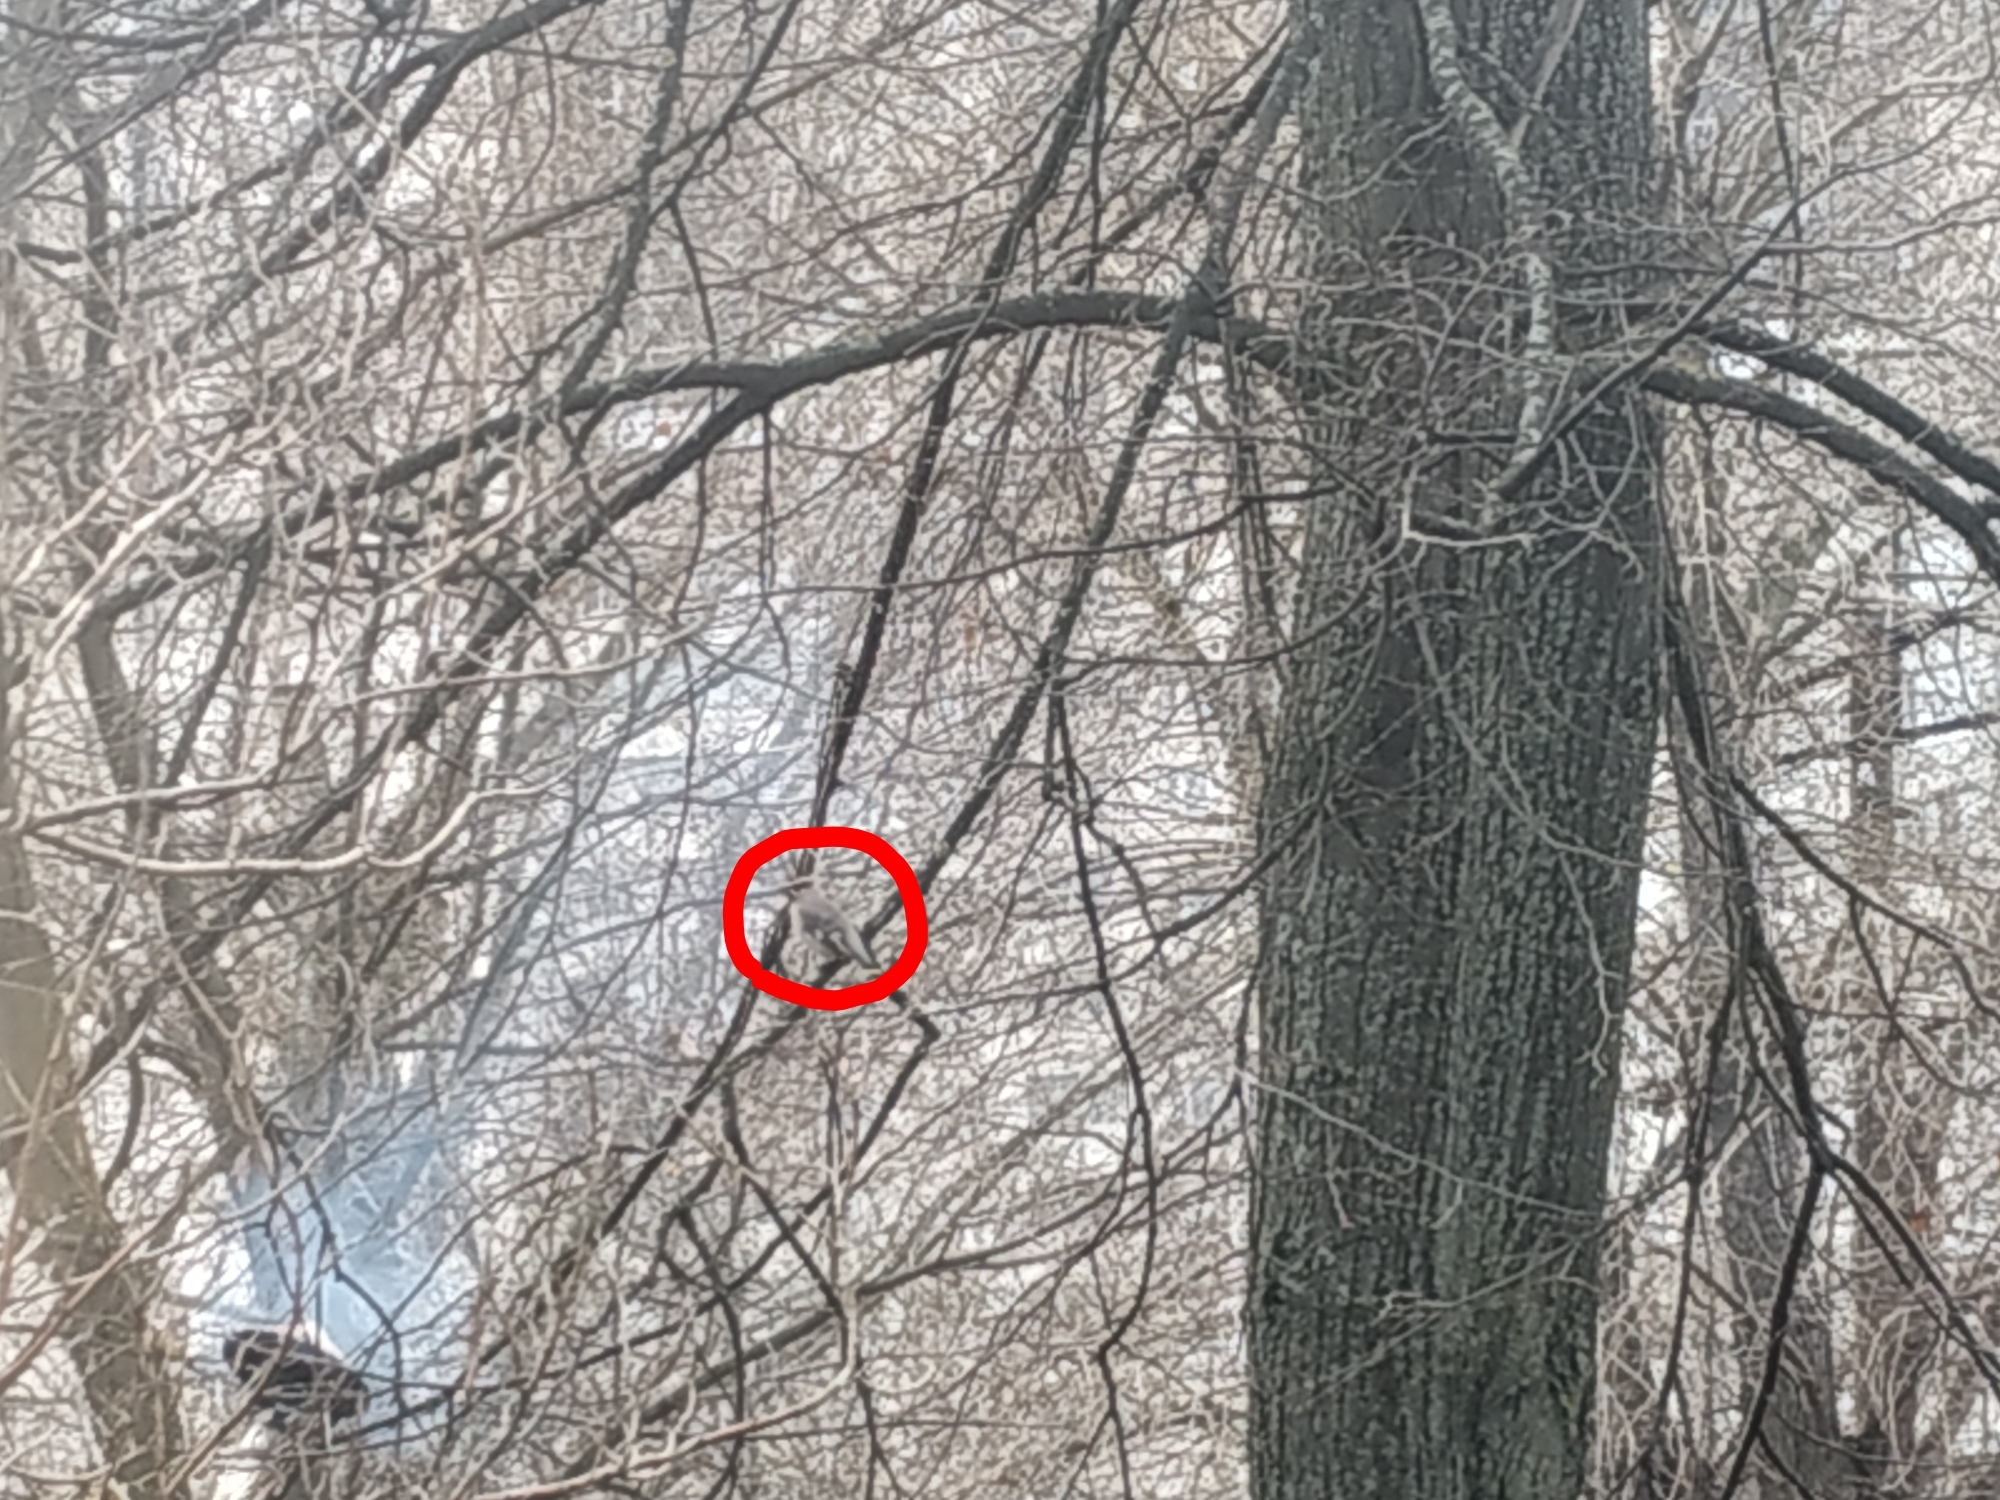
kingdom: Animalia
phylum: Chordata
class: Aves
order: Passeriformes
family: Bombycillidae
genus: Bombycilla
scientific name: Bombycilla garrulus
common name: Bohemian waxwing
